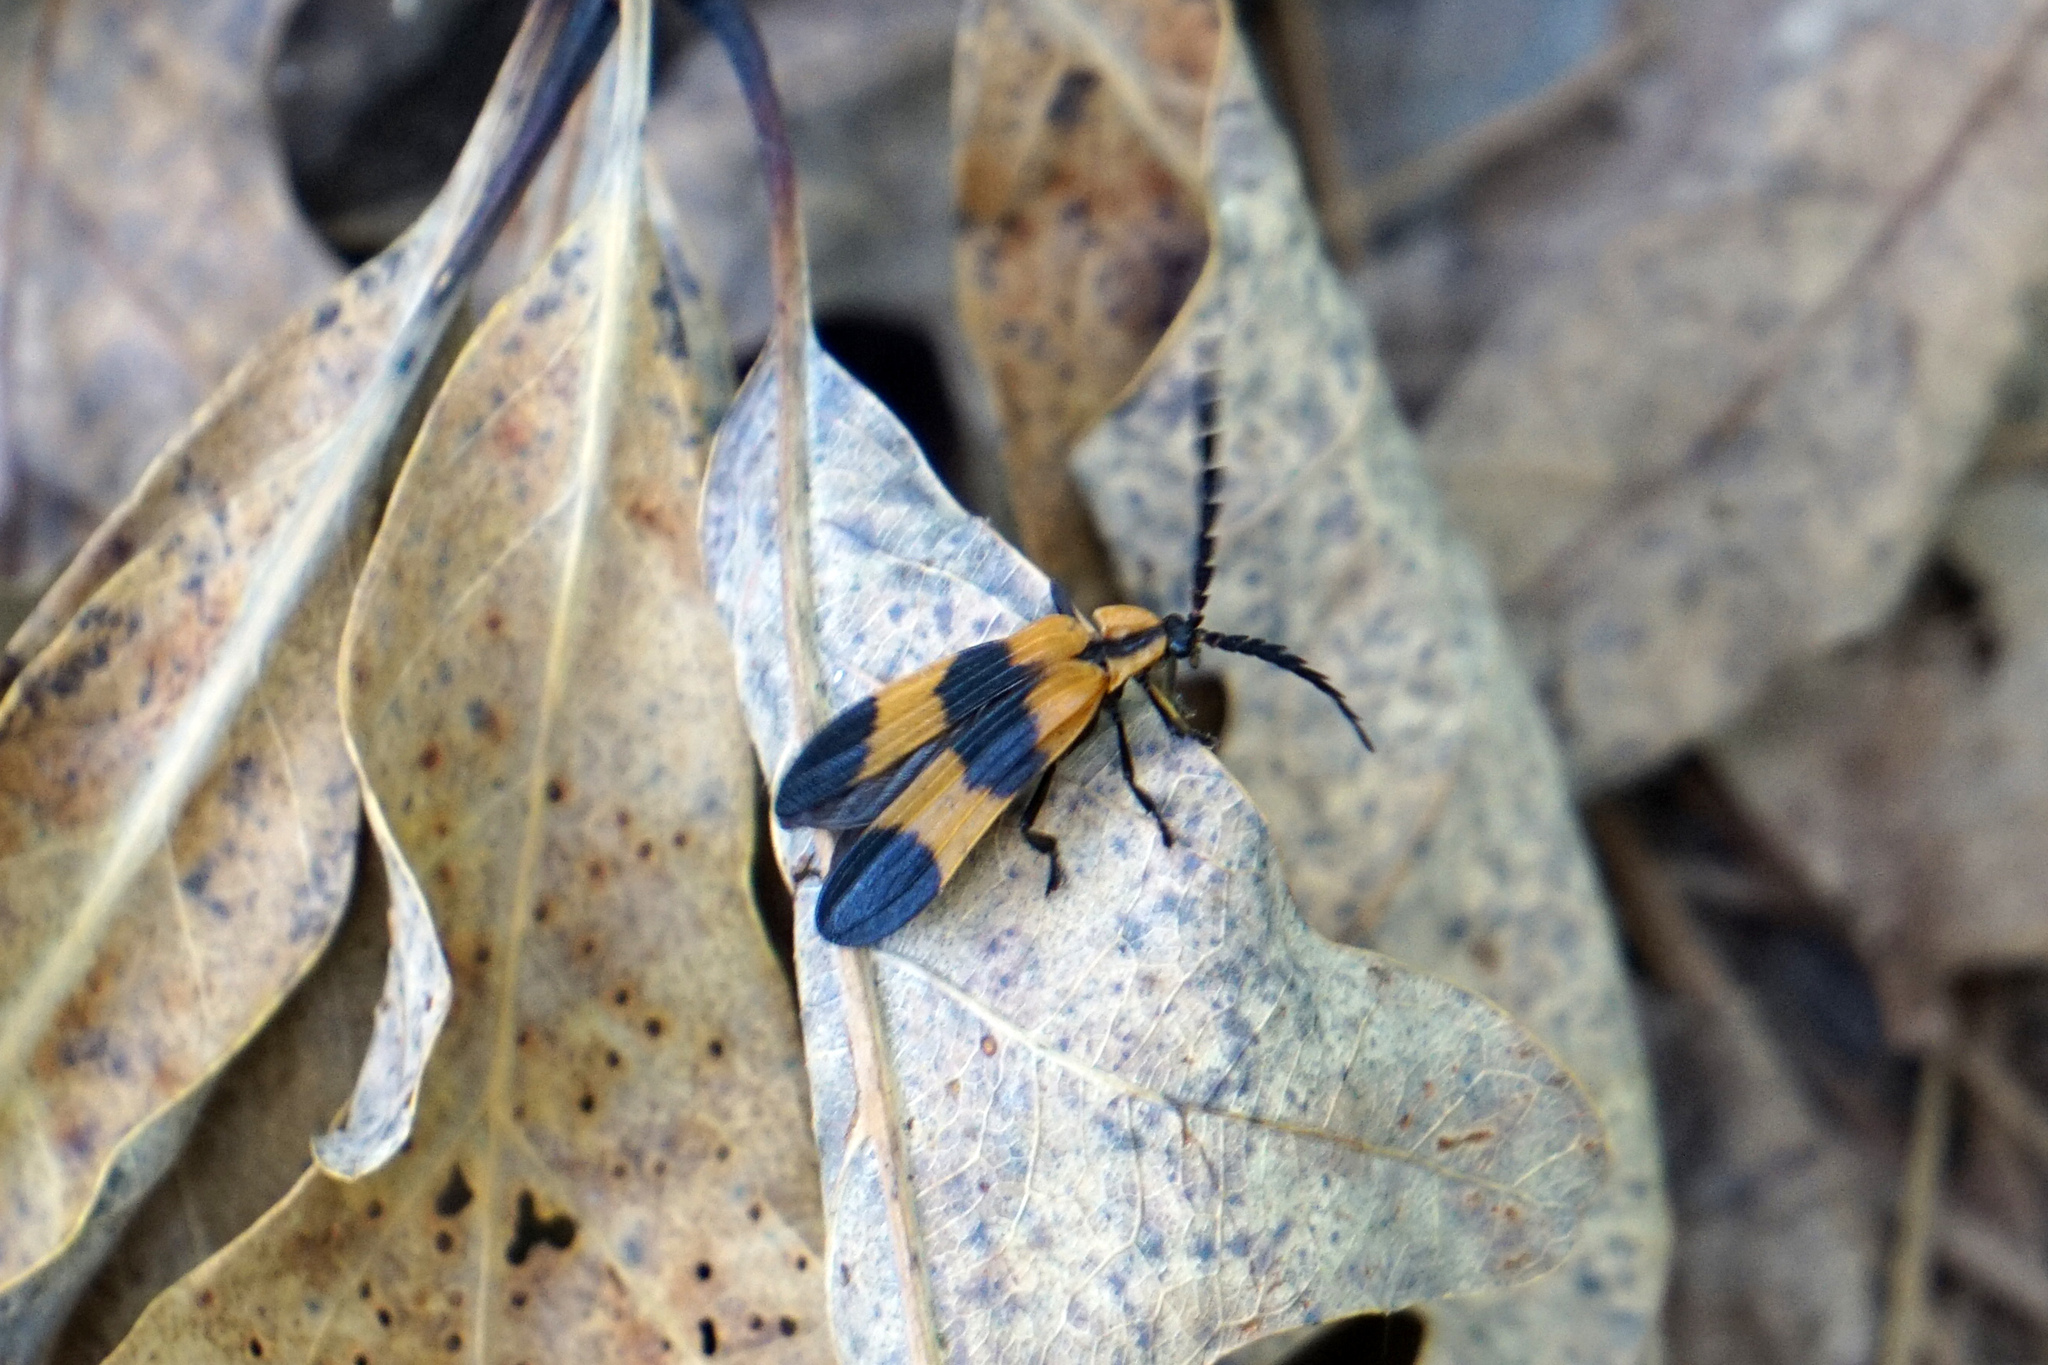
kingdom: Animalia
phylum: Arthropoda
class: Insecta
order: Coleoptera
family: Lycidae
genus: Calopteron
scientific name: Calopteron reticulatum
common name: Banded net-winged beetle
